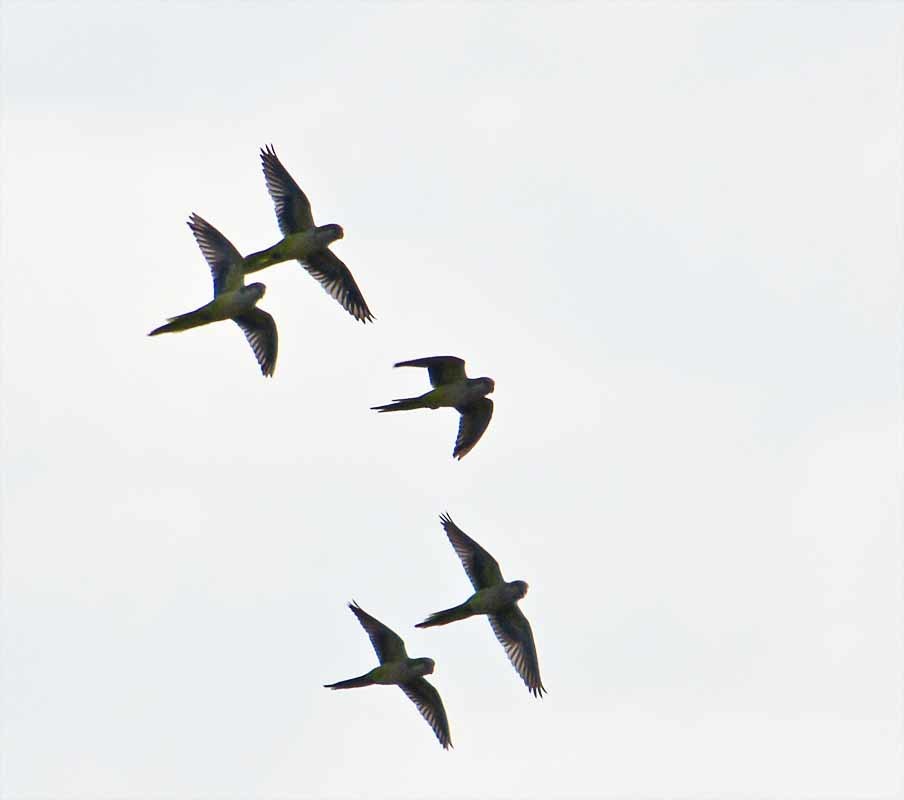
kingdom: Animalia
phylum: Chordata
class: Aves
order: Psittaciformes
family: Psittacidae
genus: Myiopsitta
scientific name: Myiopsitta monachus
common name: Monk parakeet
